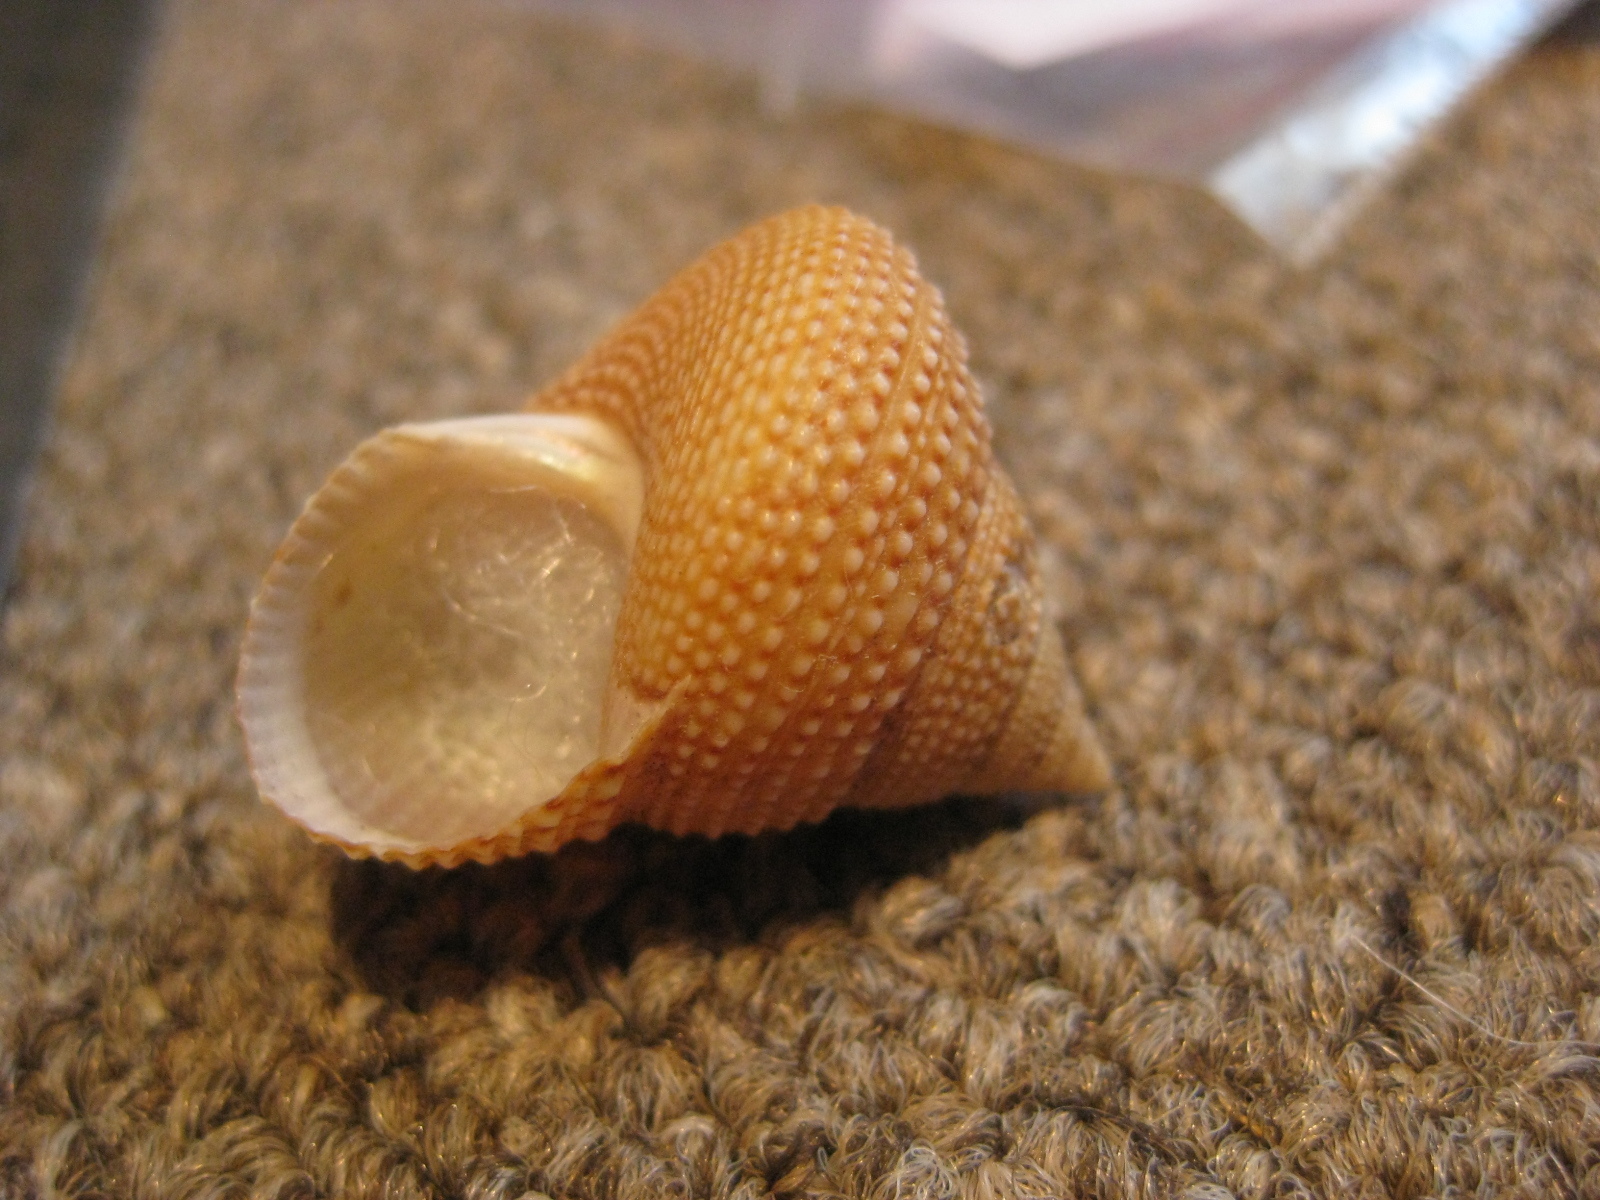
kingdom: Animalia
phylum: Mollusca
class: Gastropoda
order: Trochida
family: Calliostomatidae
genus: Maurea
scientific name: Maurea granti
